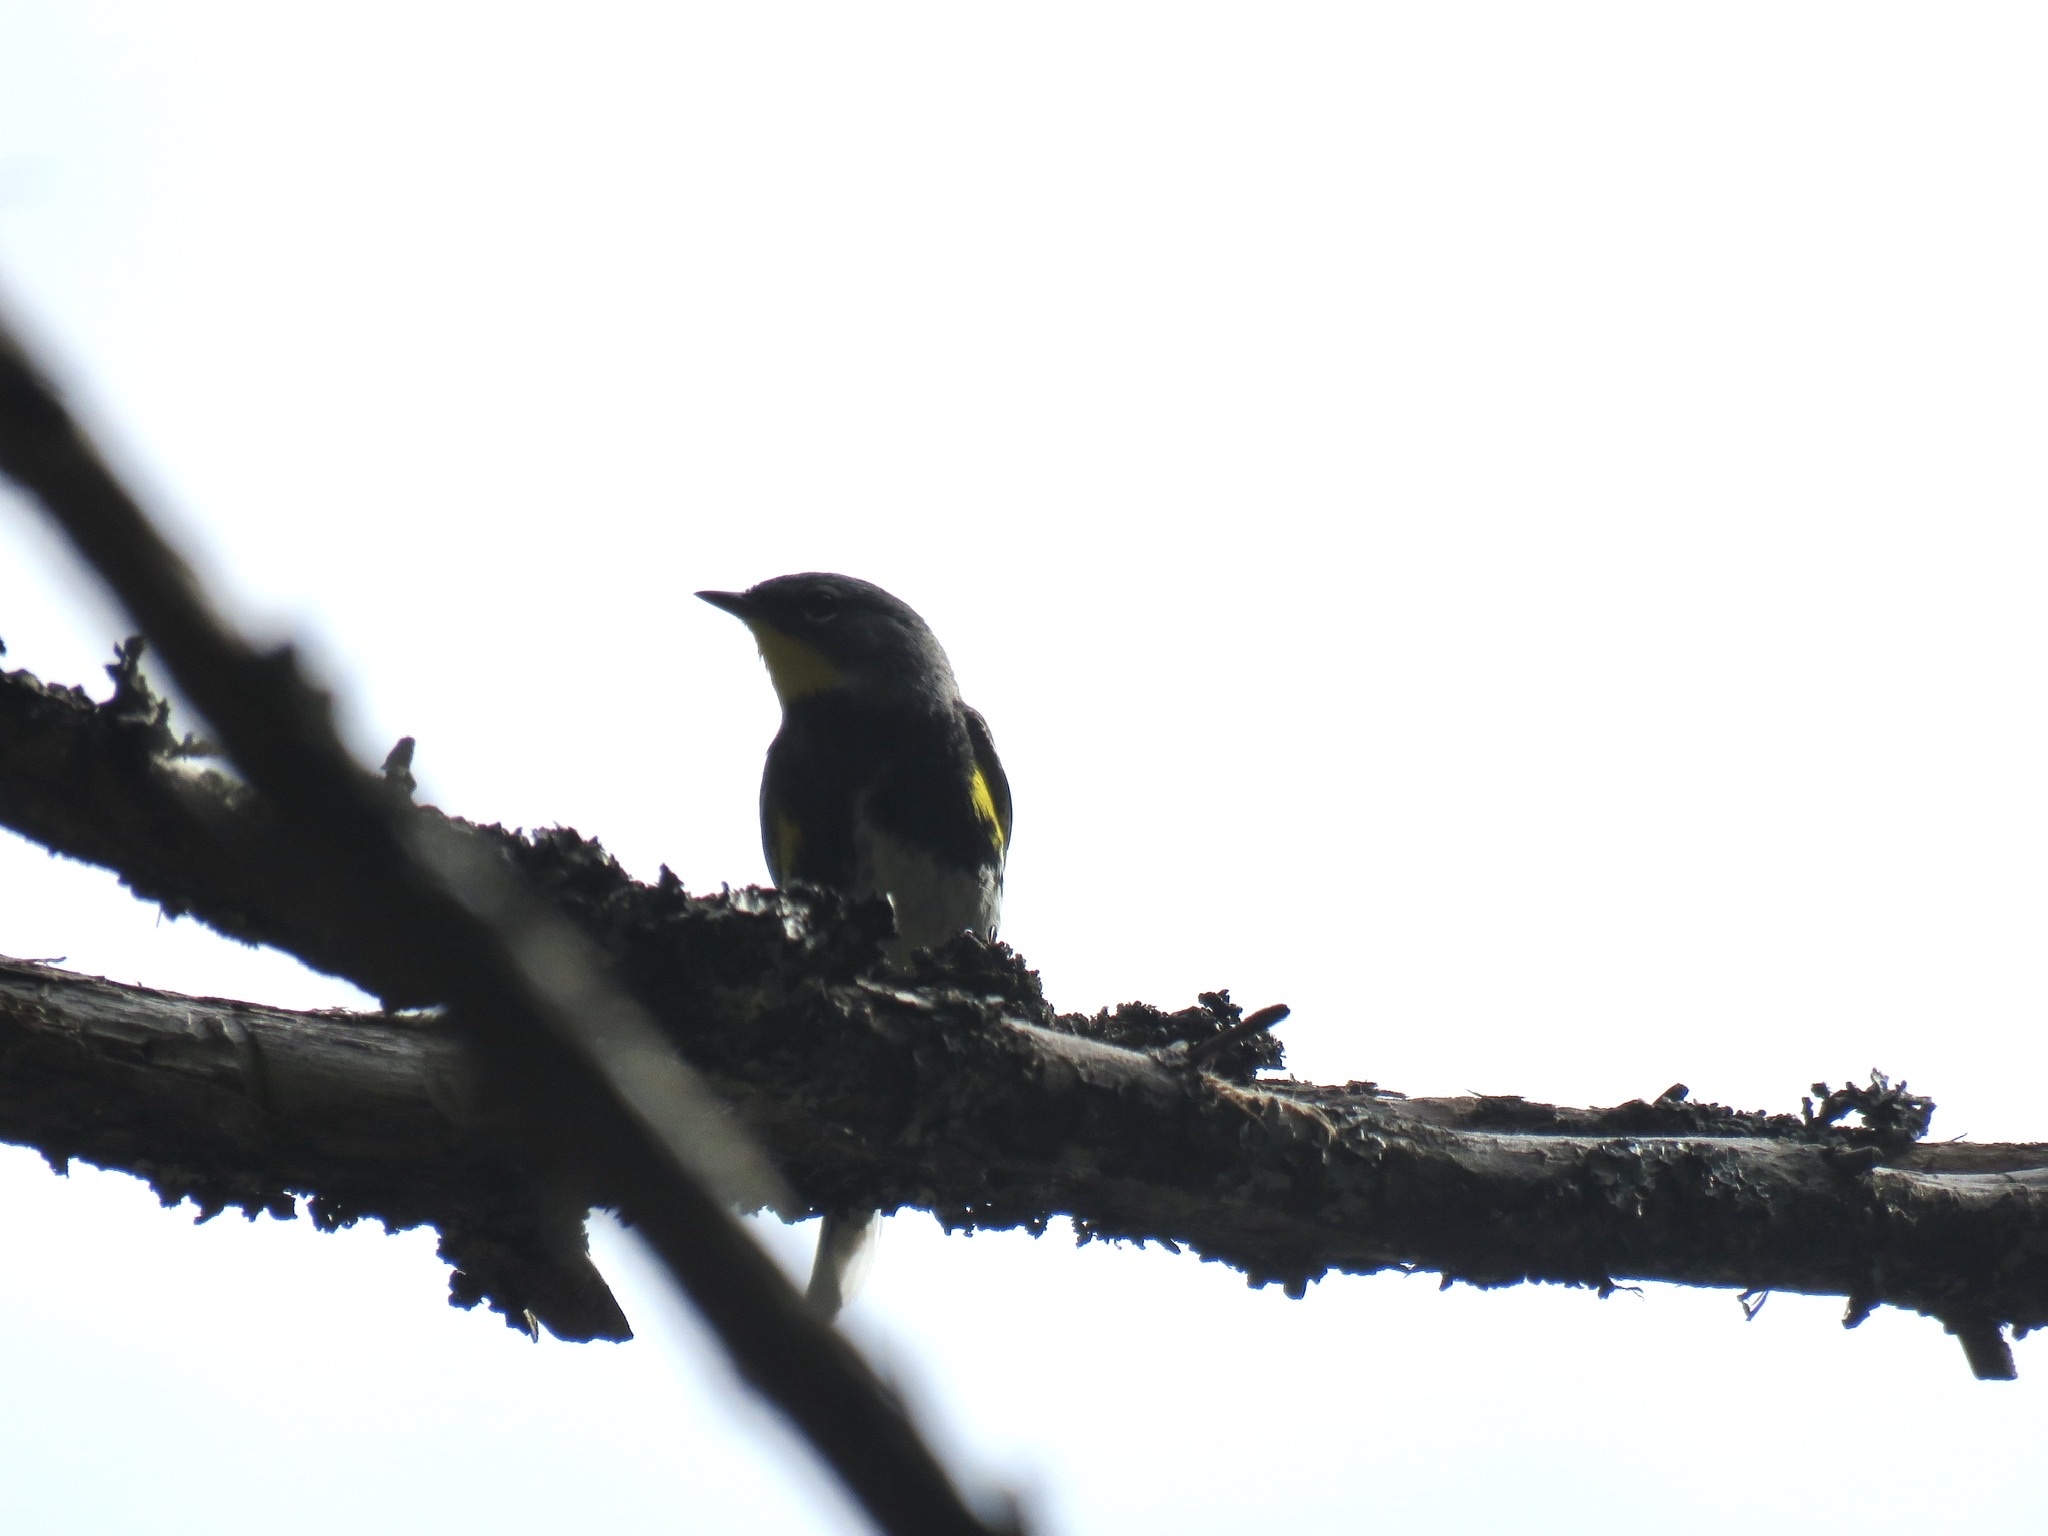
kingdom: Animalia
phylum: Chordata
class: Aves
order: Passeriformes
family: Parulidae
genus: Setophaga
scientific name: Setophaga coronata
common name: Myrtle warbler
